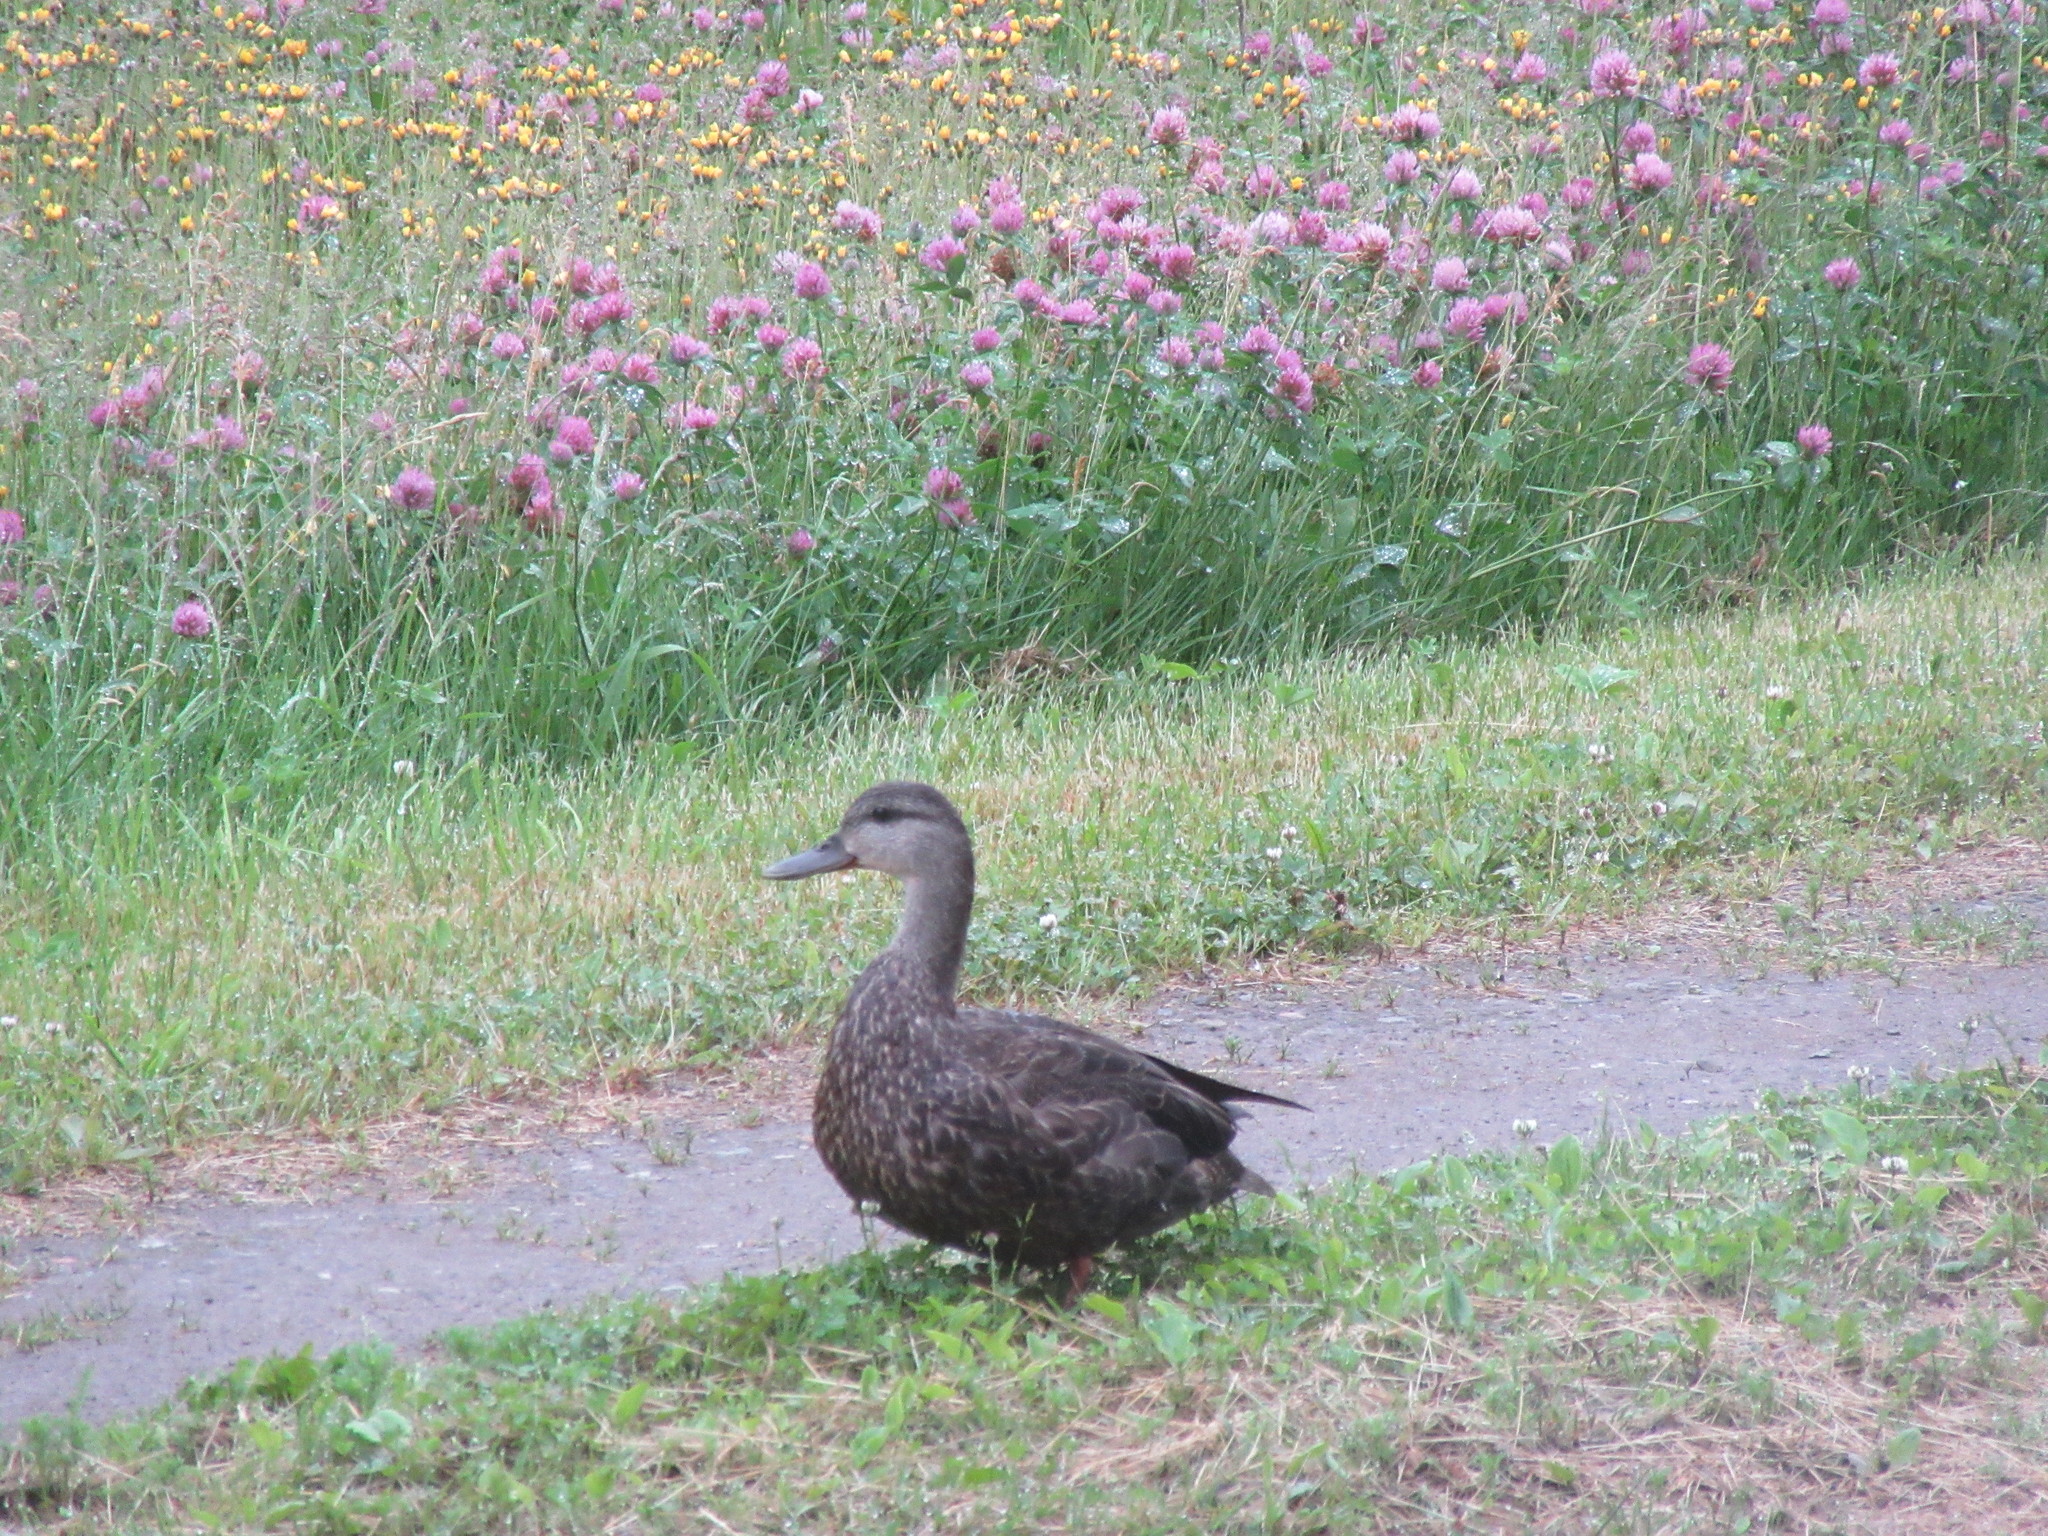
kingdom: Animalia
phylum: Chordata
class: Aves
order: Anseriformes
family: Anatidae
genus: Anas
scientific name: Anas rubripes
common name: American black duck
